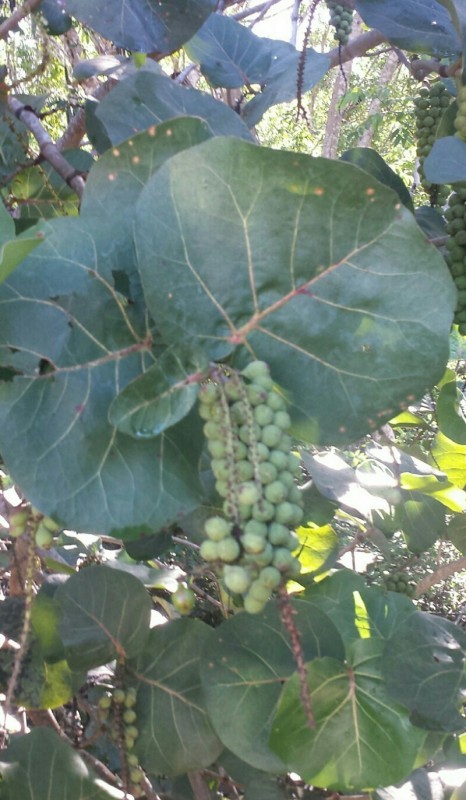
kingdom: Plantae
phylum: Tracheophyta
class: Magnoliopsida
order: Caryophyllales
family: Polygonaceae
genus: Coccoloba
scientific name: Coccoloba uvifera
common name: Seagrape
